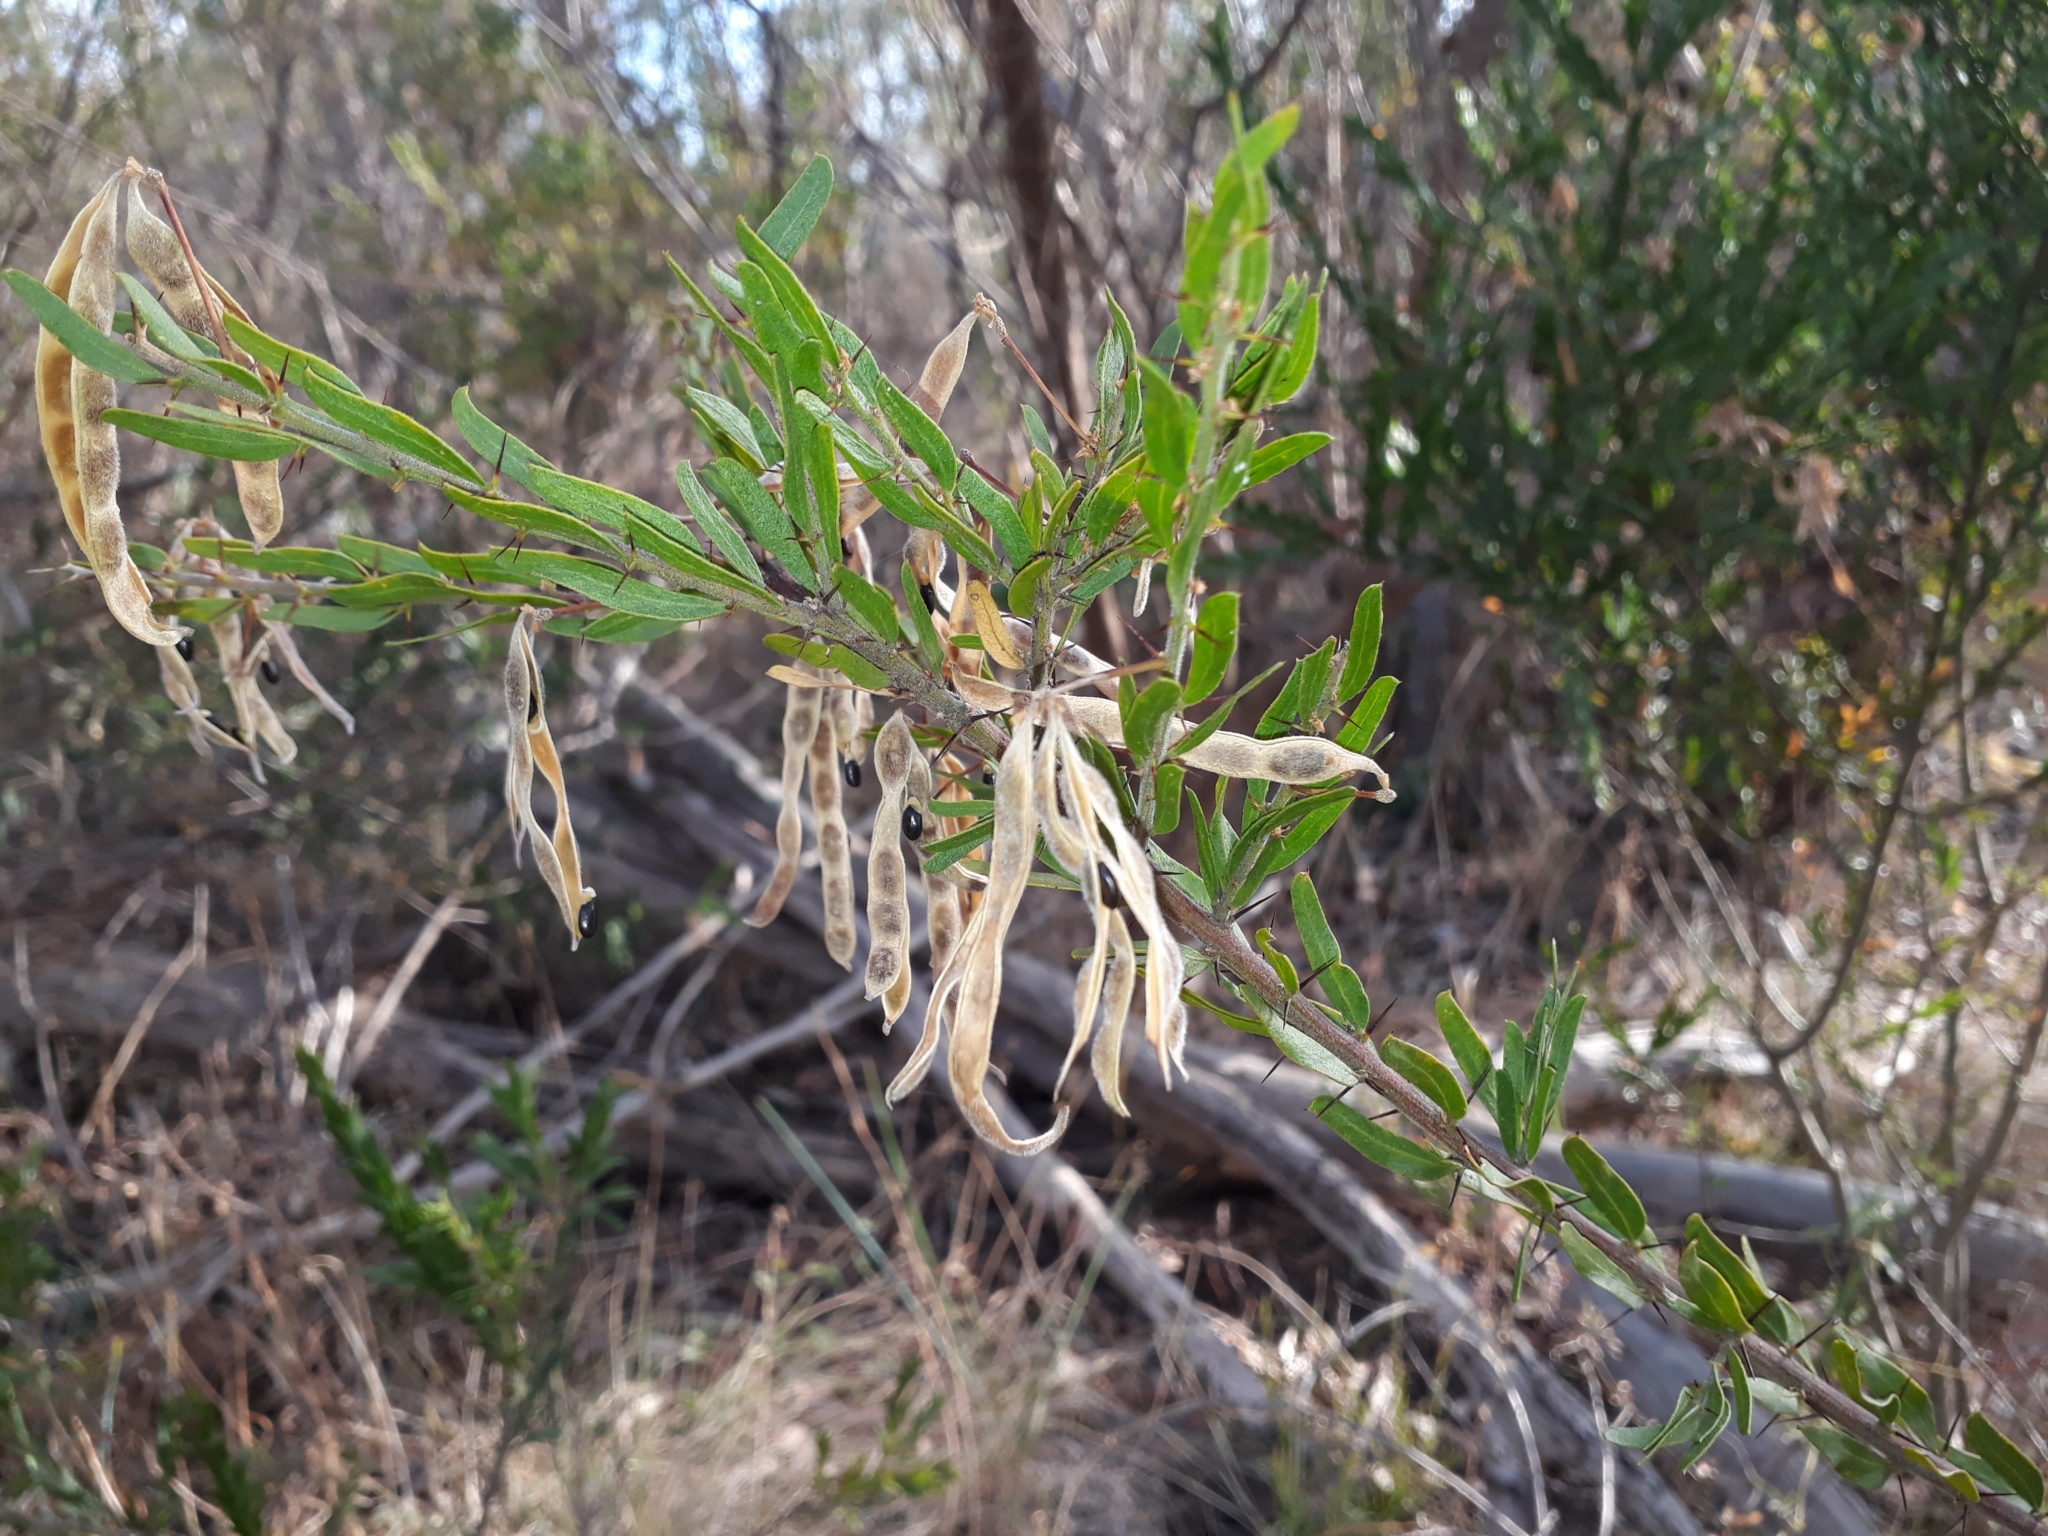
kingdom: Plantae
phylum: Tracheophyta
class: Magnoliopsida
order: Fabales
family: Fabaceae
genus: Acacia
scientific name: Acacia paradoxa
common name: Paradox acacia
